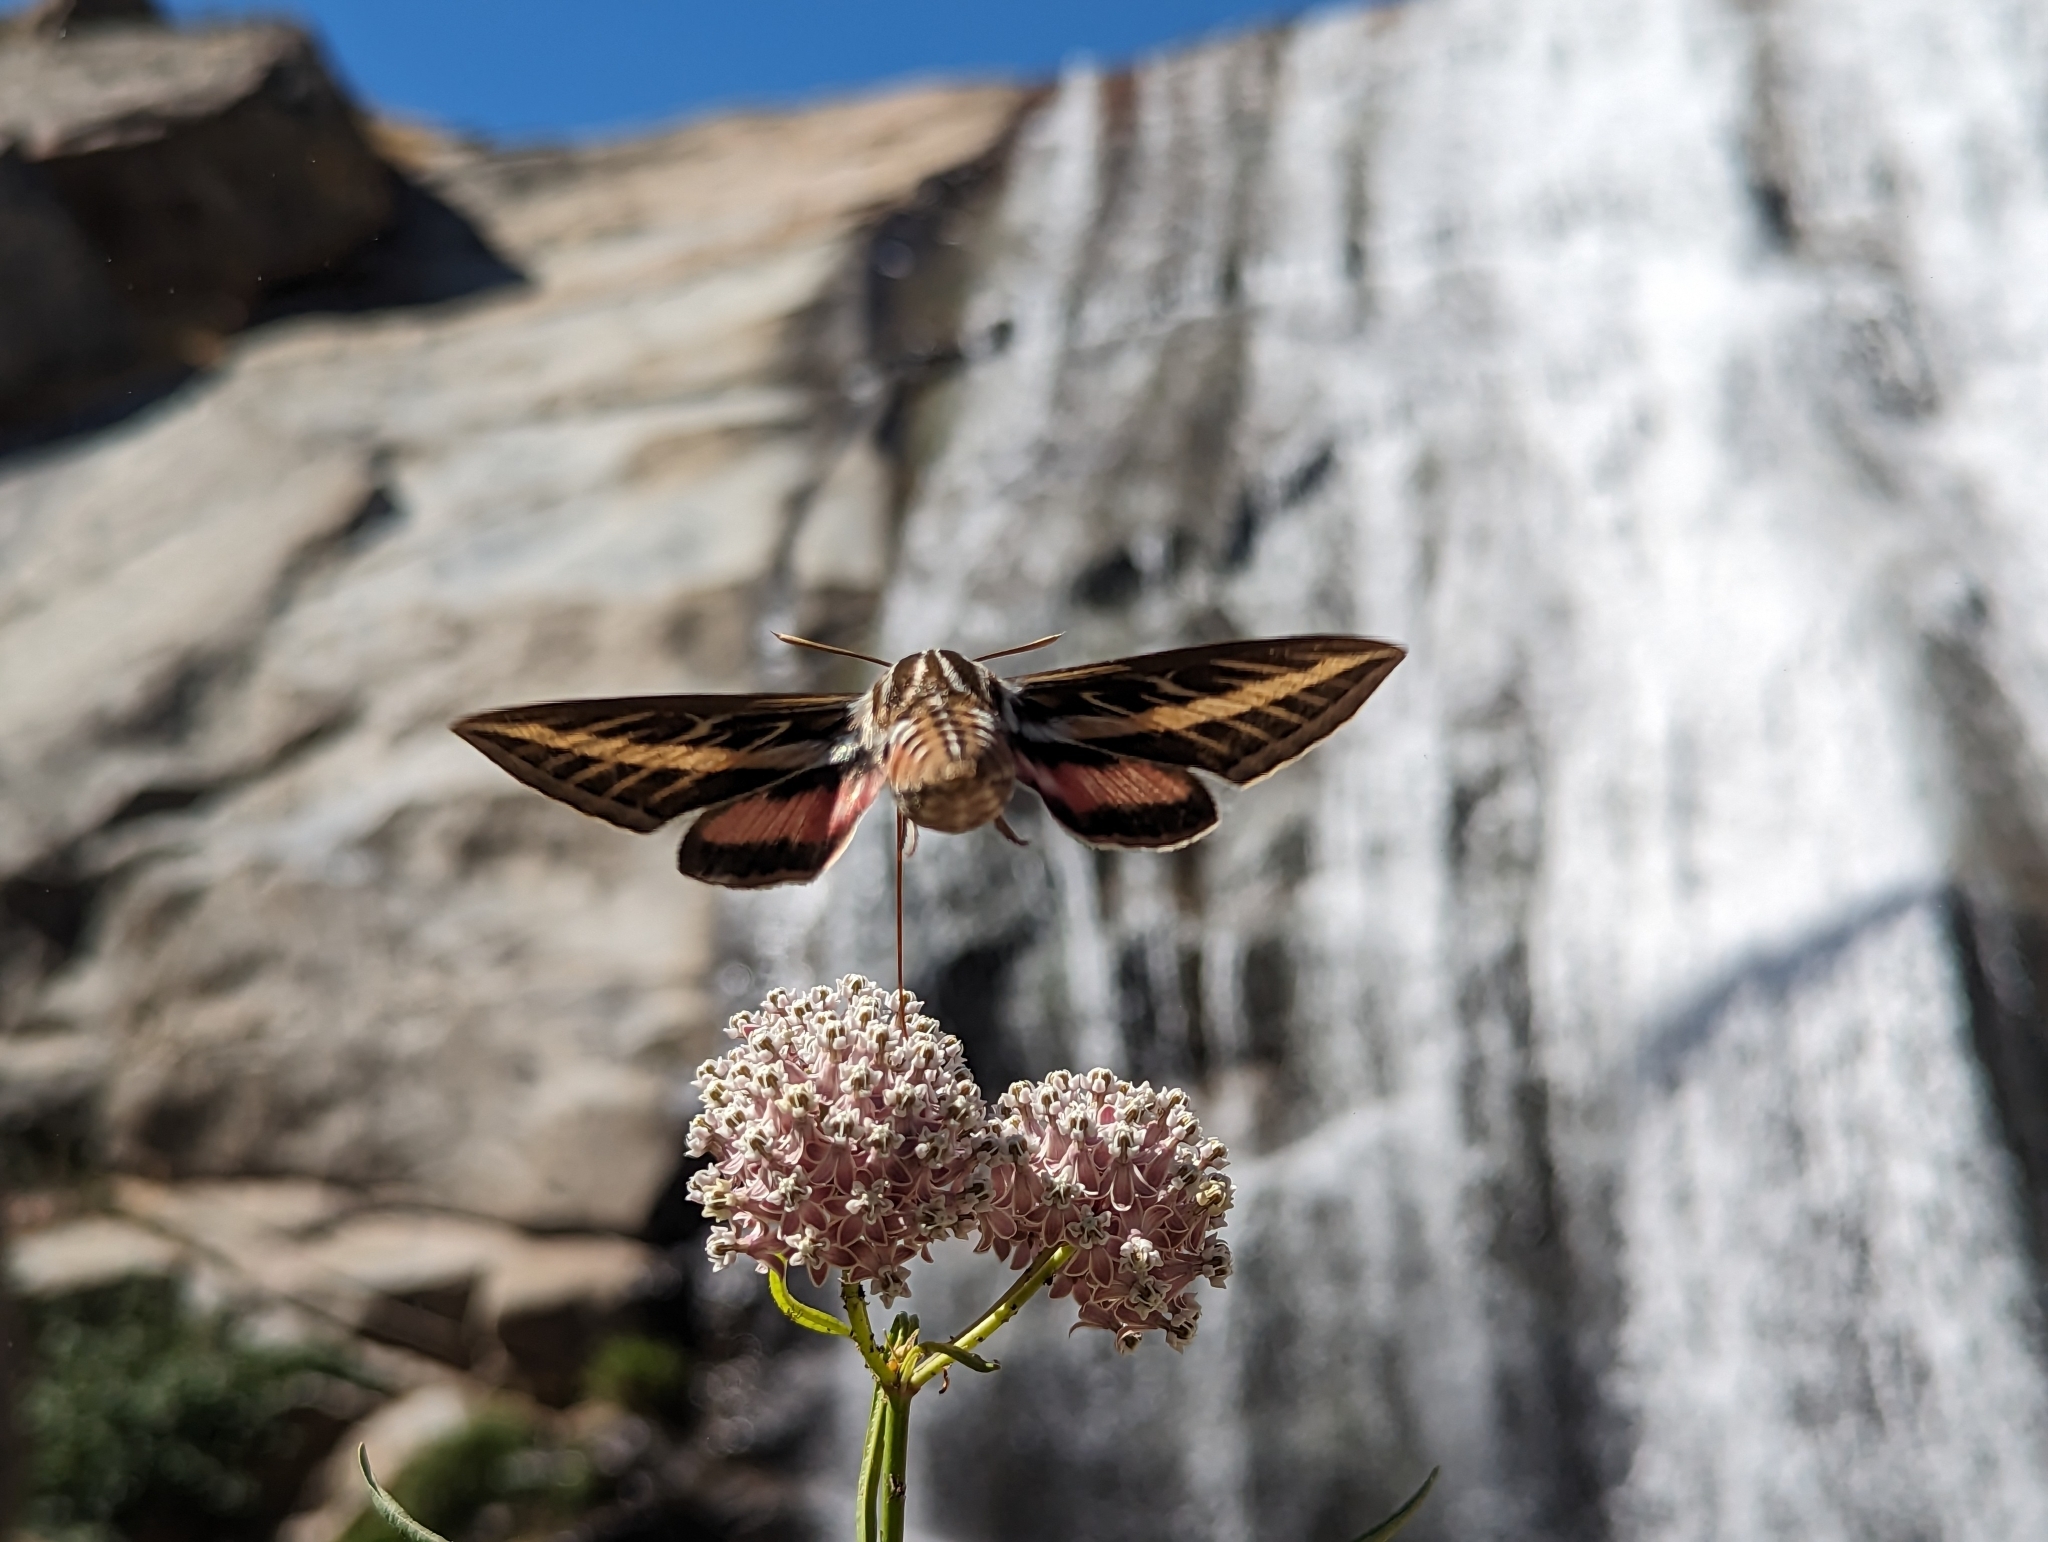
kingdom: Animalia
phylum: Arthropoda
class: Insecta
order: Lepidoptera
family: Sphingidae
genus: Hyles
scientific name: Hyles lineata
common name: White-lined sphinx
